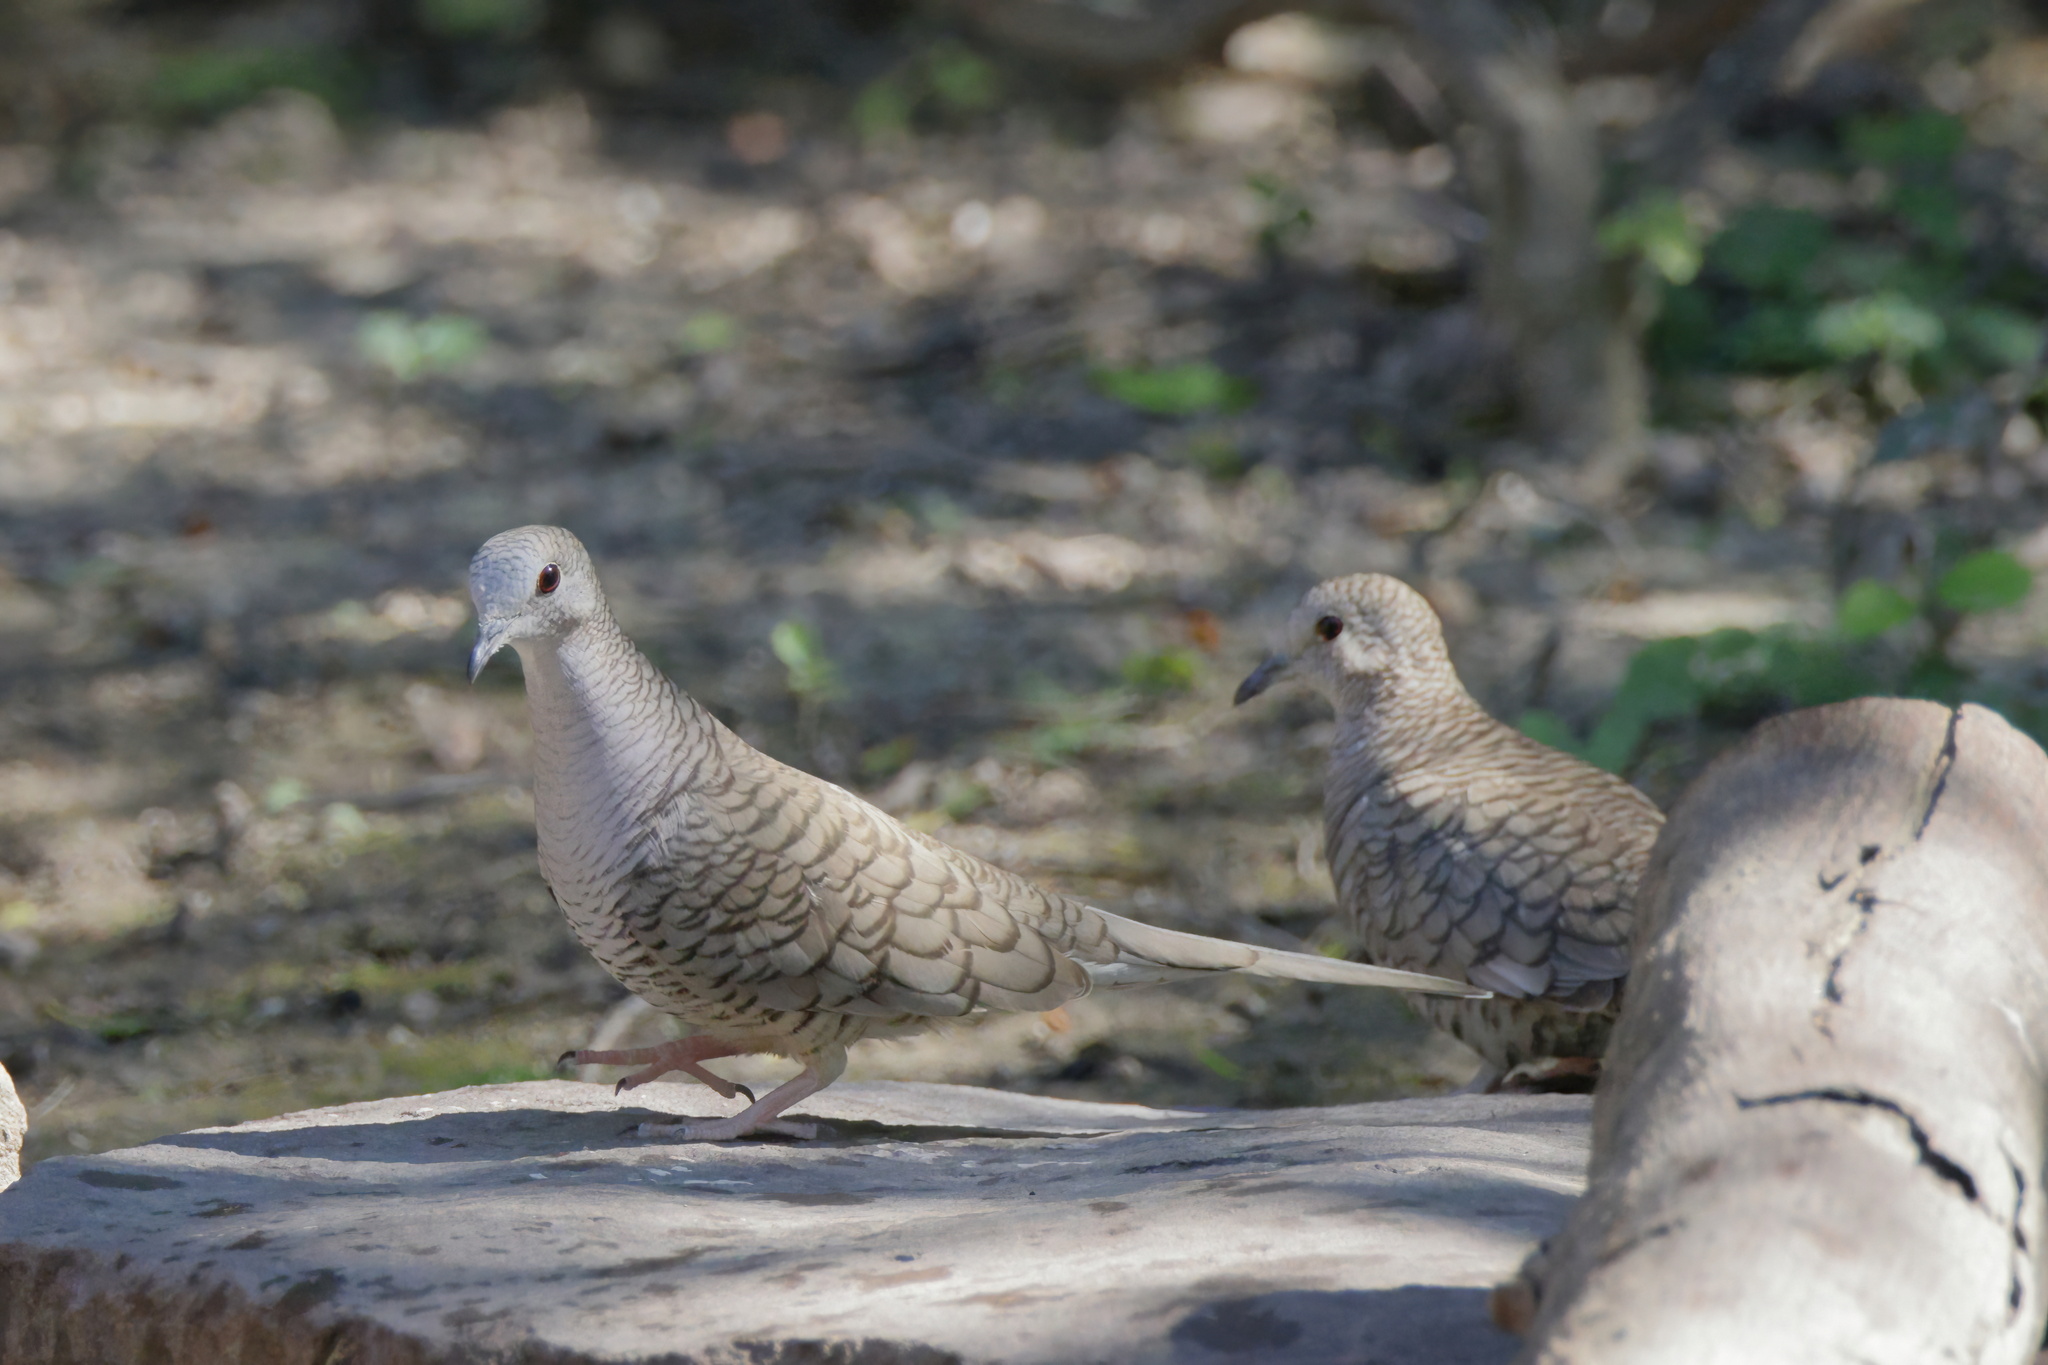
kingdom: Animalia
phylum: Chordata
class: Aves
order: Columbiformes
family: Columbidae
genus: Columbina
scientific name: Columbina inca
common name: Inca dove
